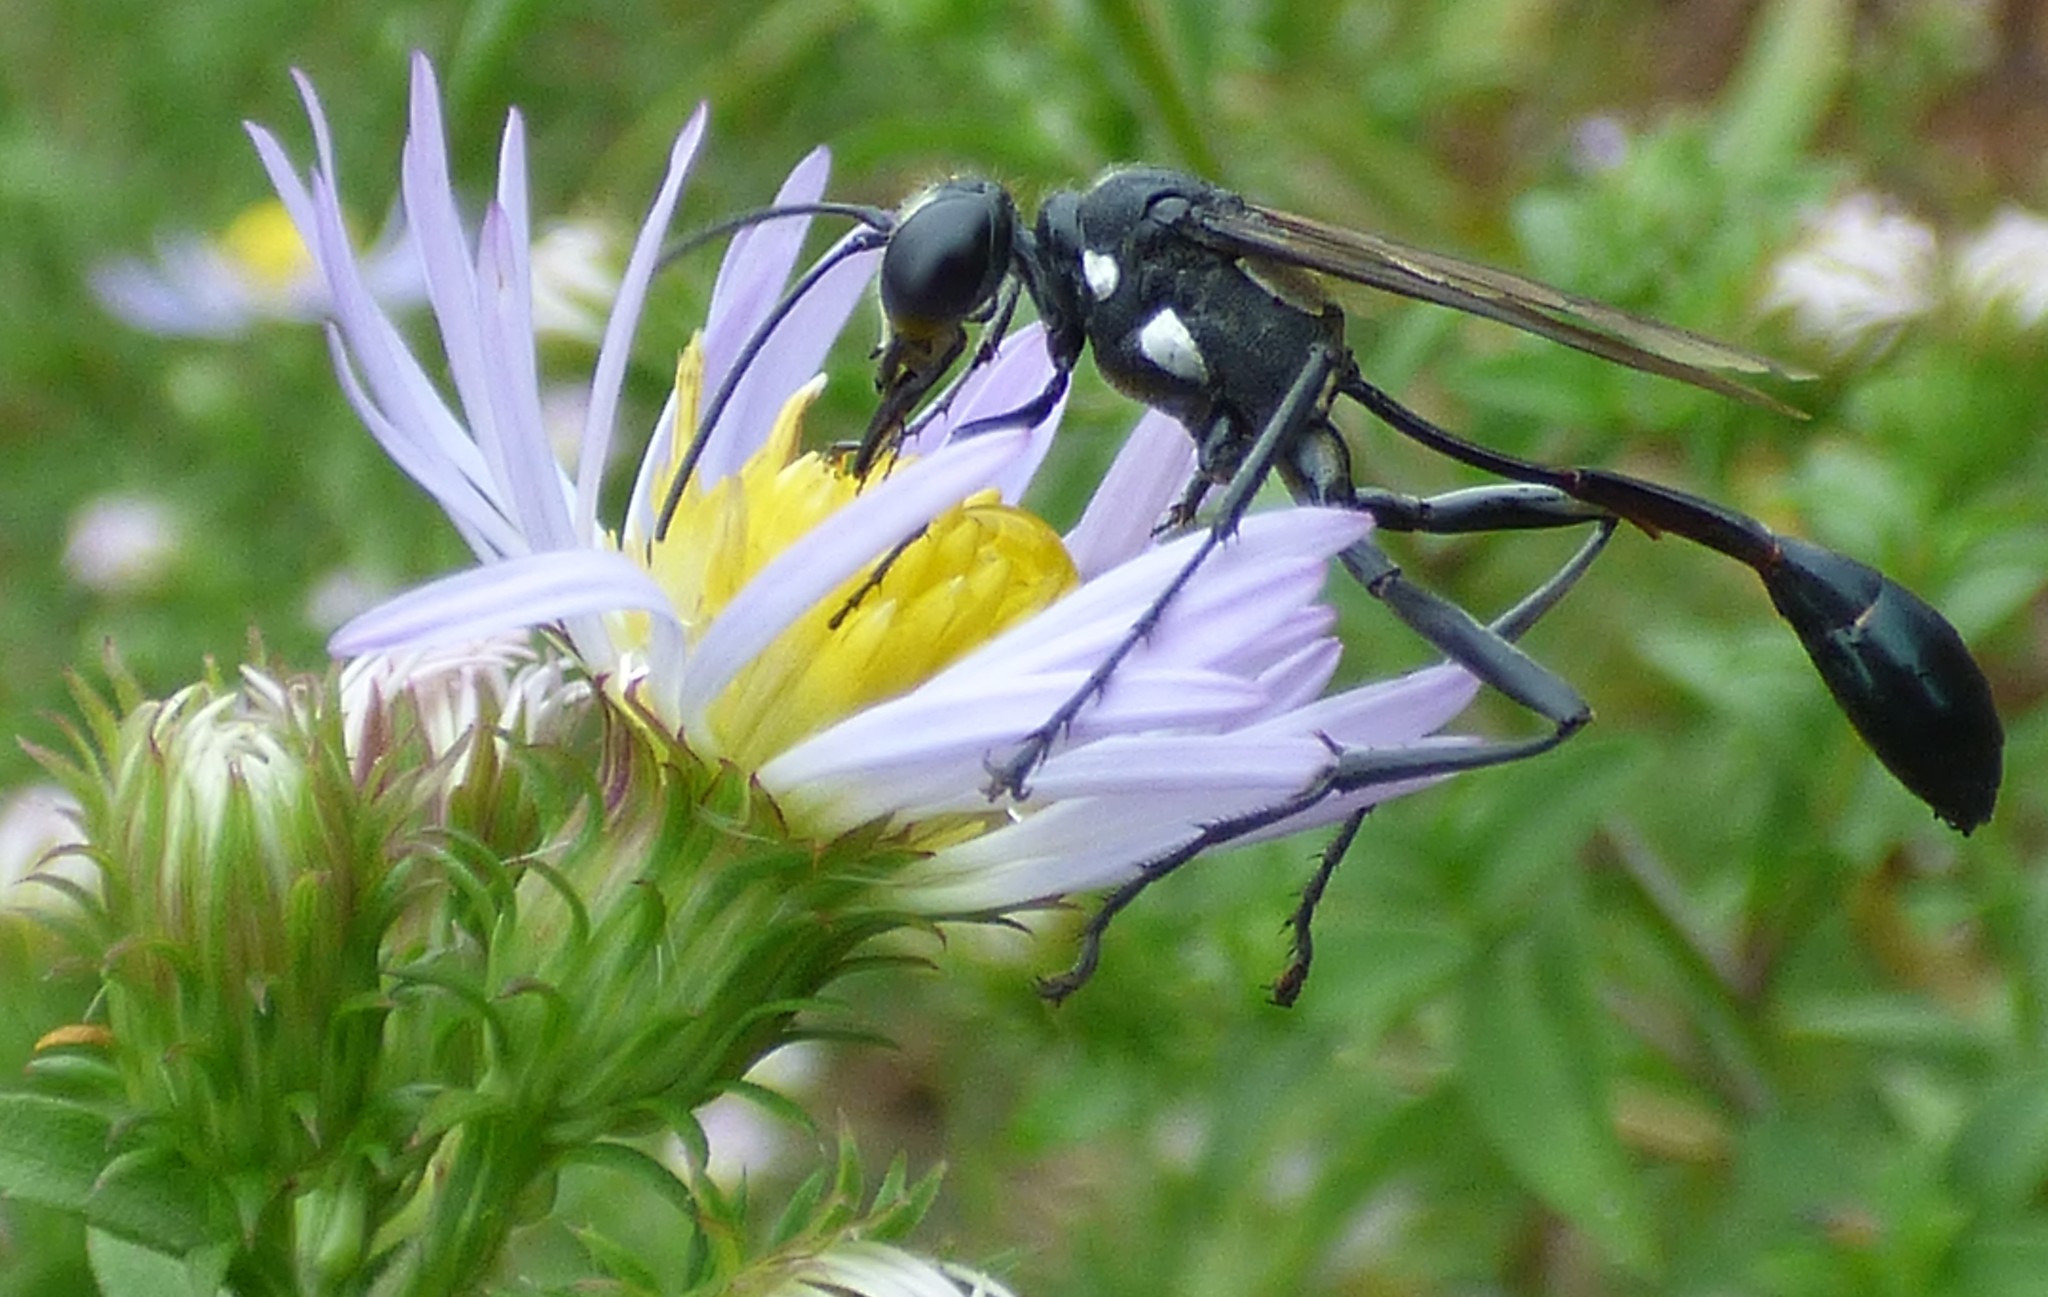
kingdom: Animalia
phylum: Arthropoda
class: Insecta
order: Hymenoptera
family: Sphecidae
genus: Eremnophila
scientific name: Eremnophila aureonotata
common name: Gold-marked thread-waisted wasp
